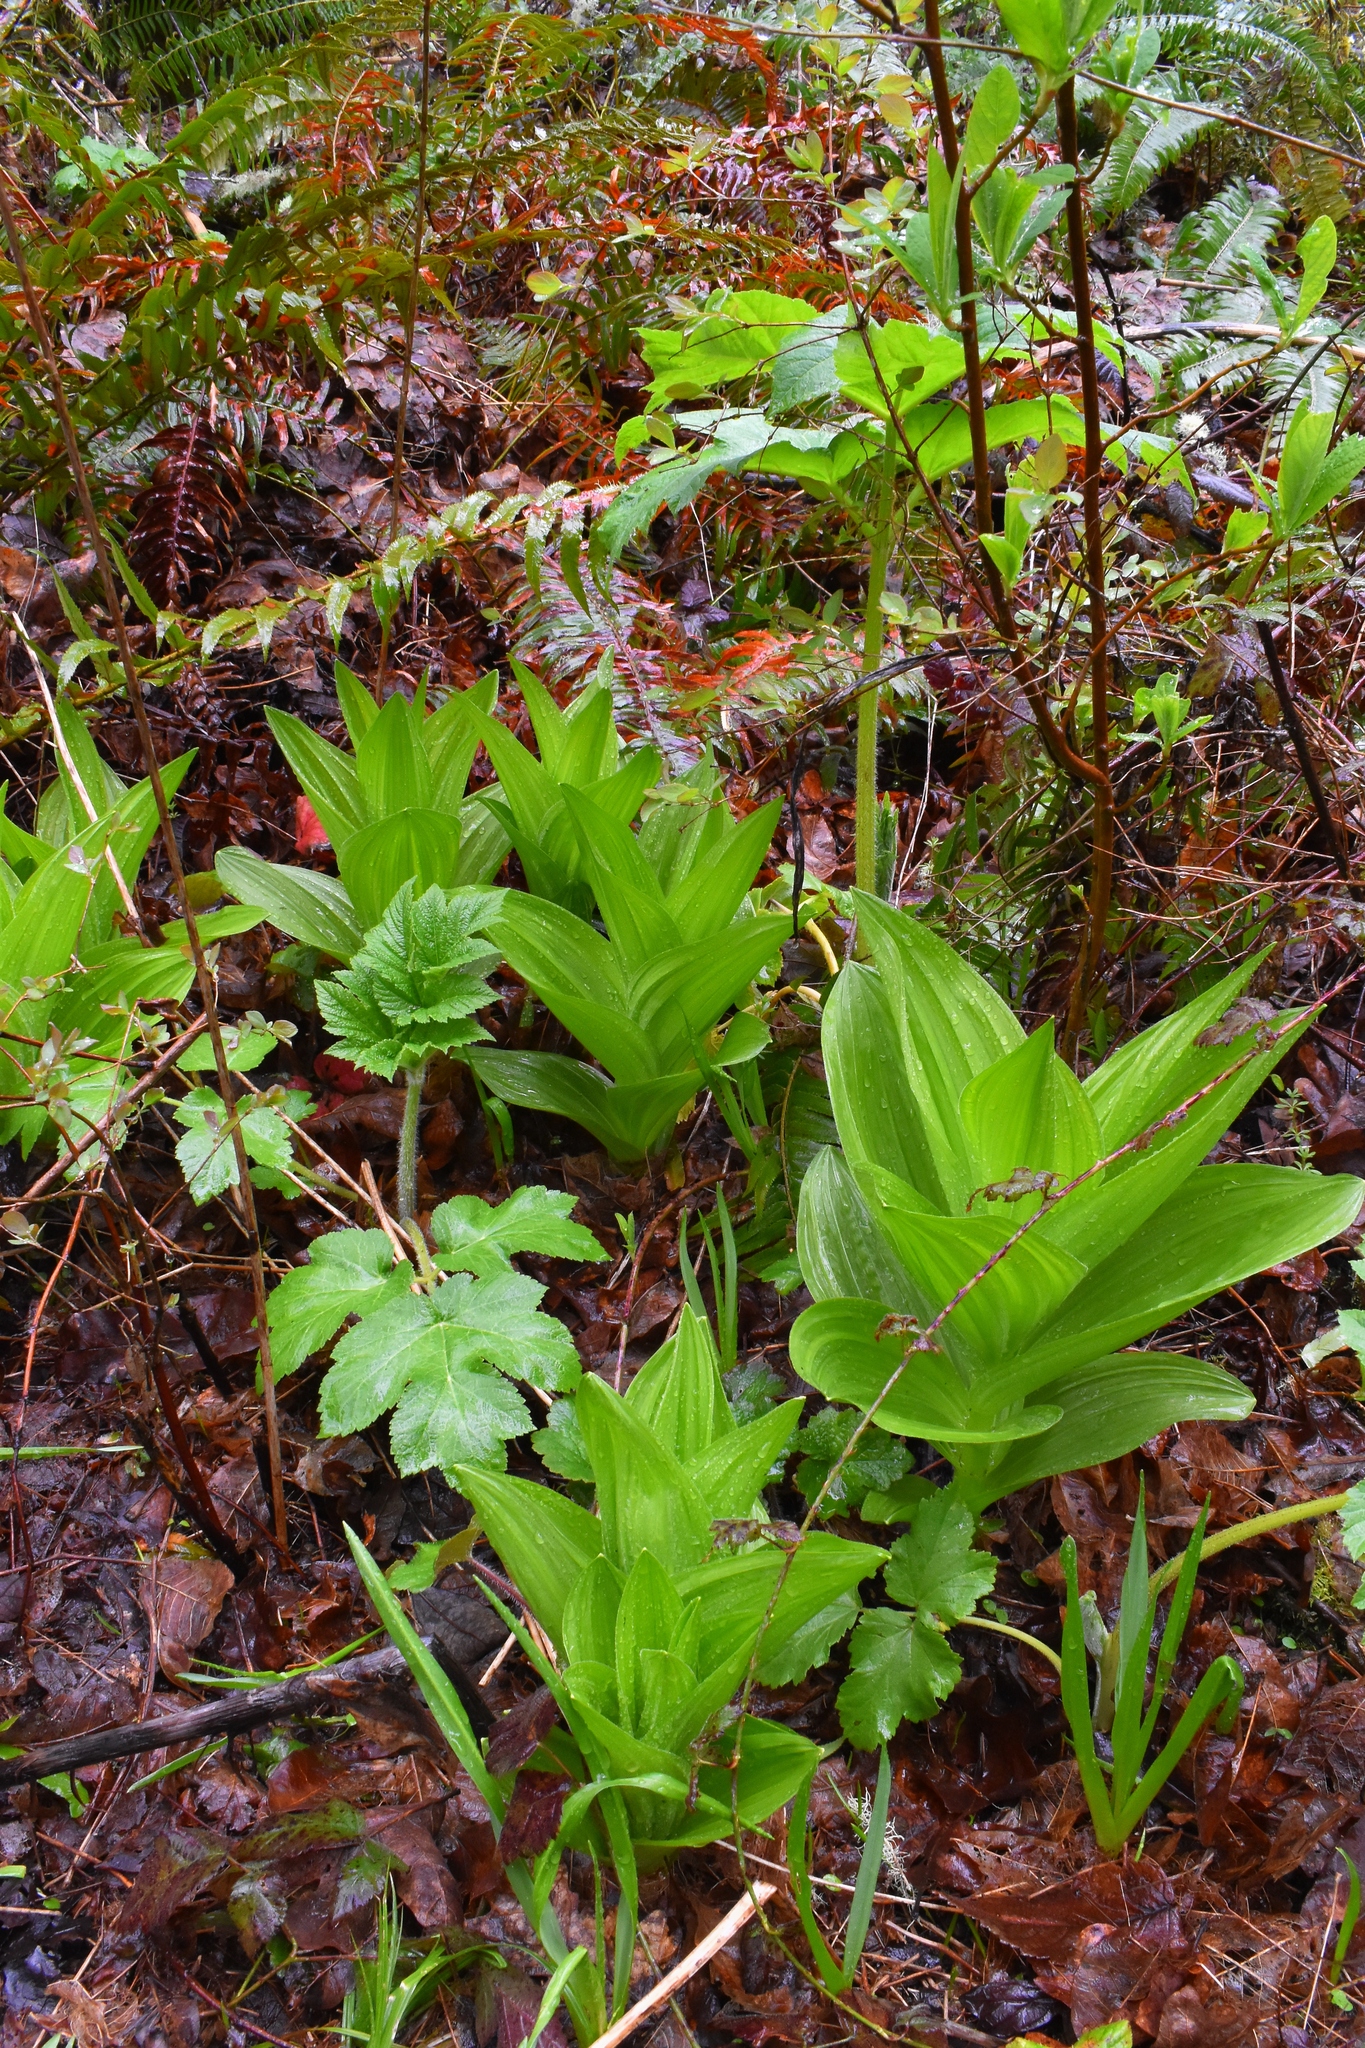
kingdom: Plantae
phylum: Tracheophyta
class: Liliopsida
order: Liliales
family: Melanthiaceae
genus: Veratrum
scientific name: Veratrum californicum
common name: California veratrum
